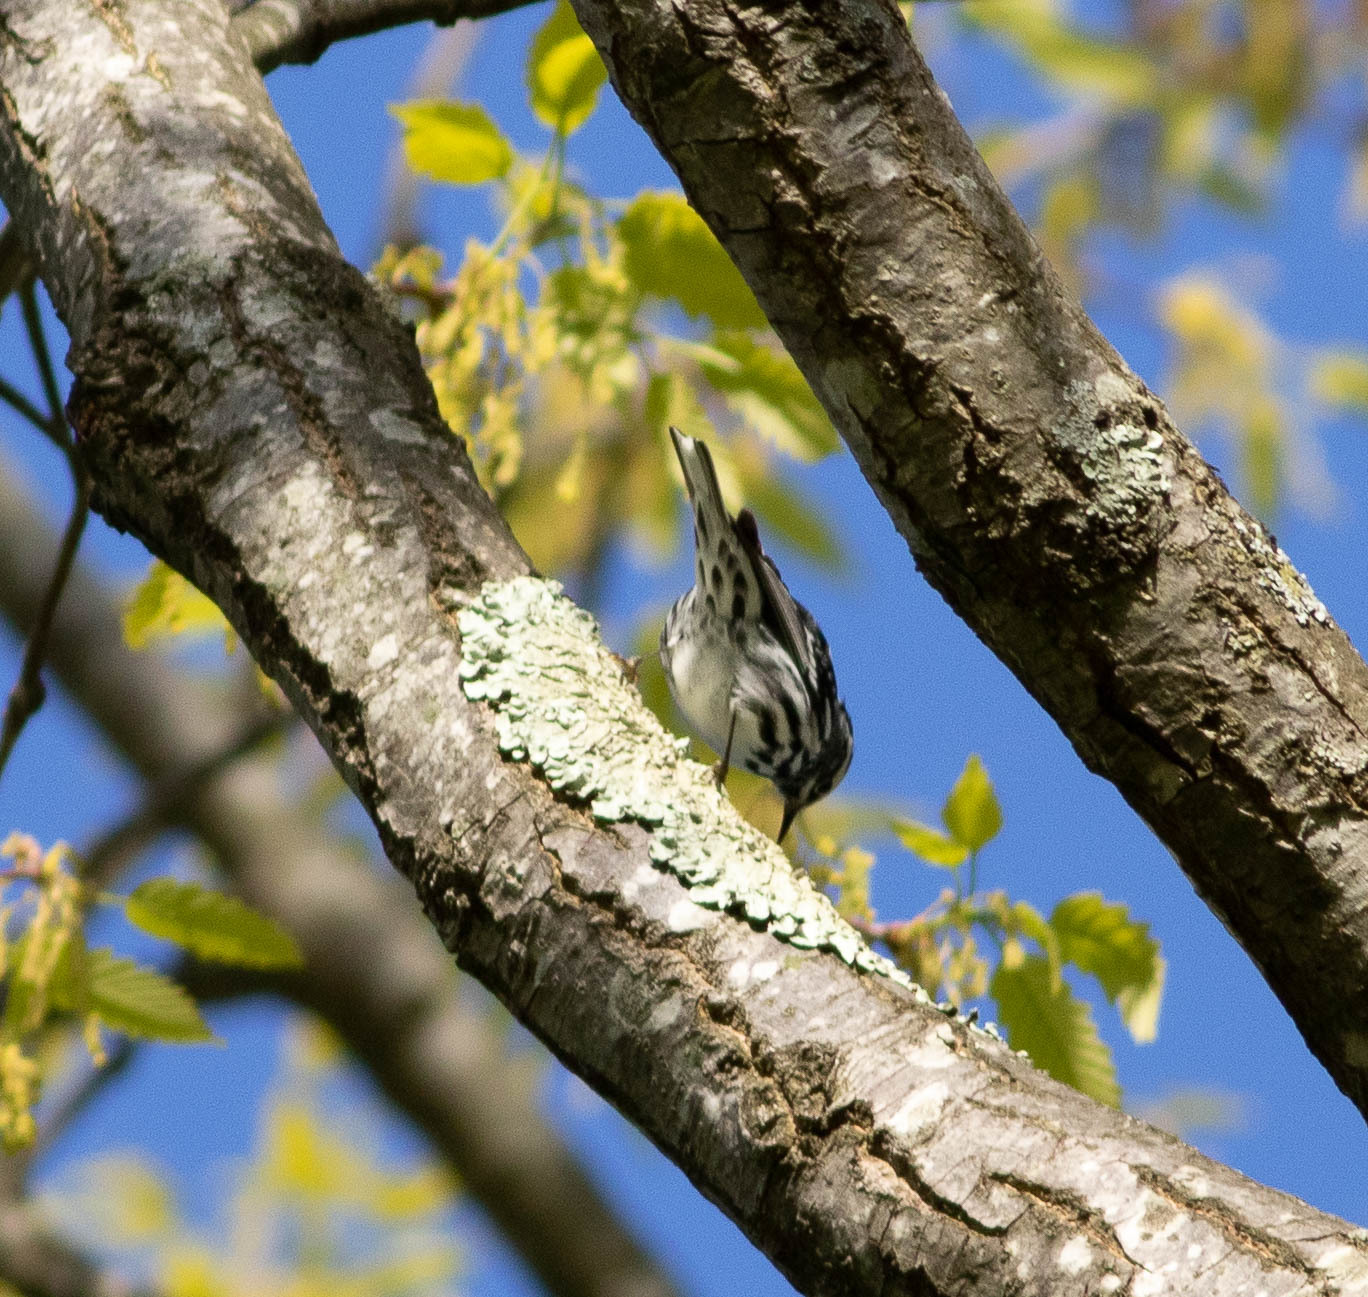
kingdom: Animalia
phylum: Chordata
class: Aves
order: Passeriformes
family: Parulidae
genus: Mniotilta
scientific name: Mniotilta varia
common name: Black-and-white warbler
